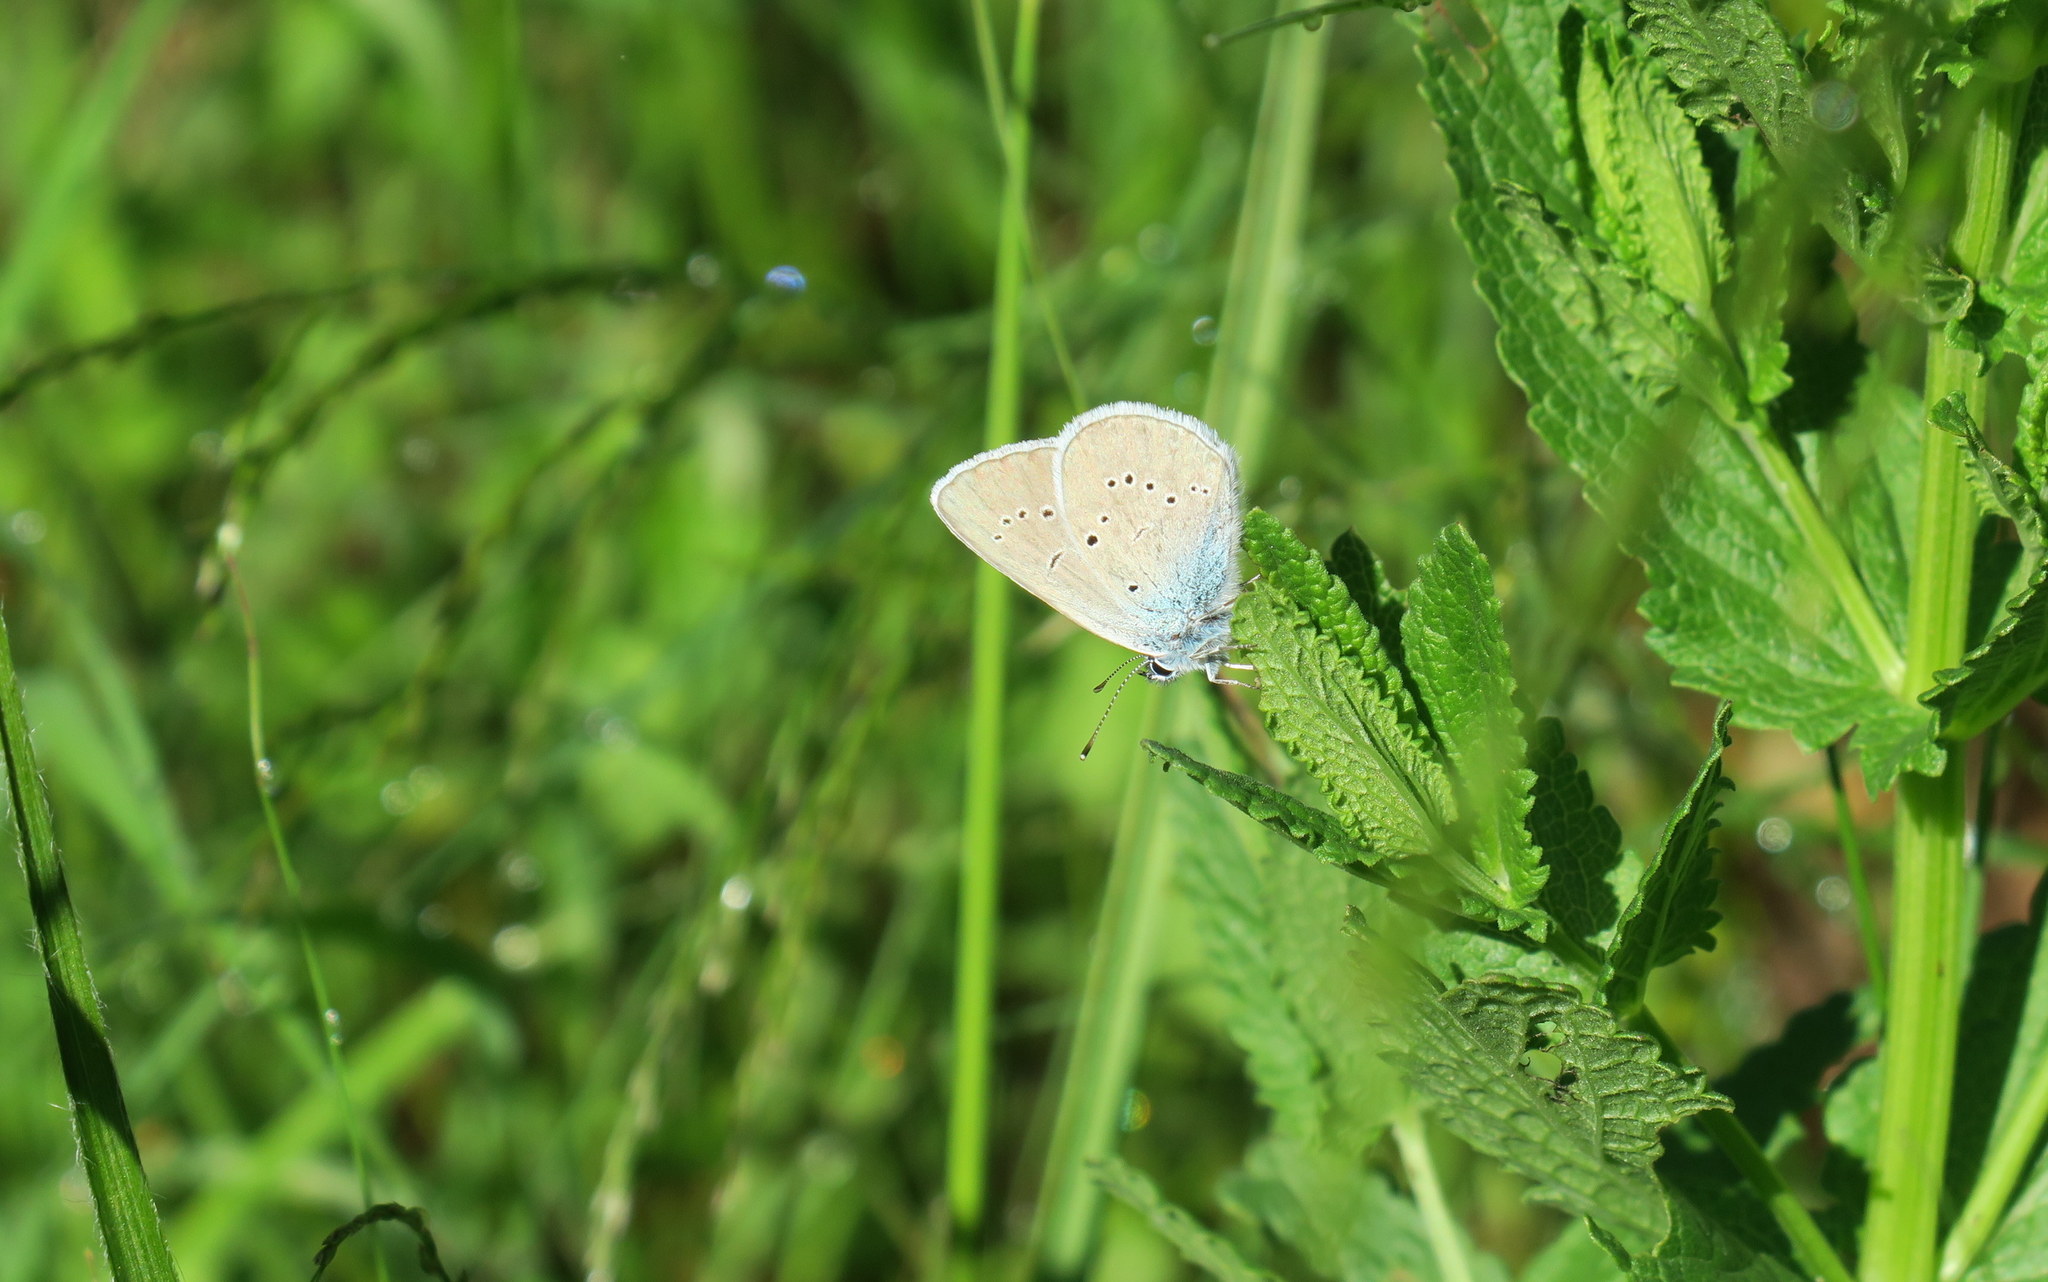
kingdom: Animalia
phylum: Arthropoda
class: Insecta
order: Lepidoptera
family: Lycaenidae
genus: Cyaniris
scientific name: Cyaniris semiargus
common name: Mazarine blue
